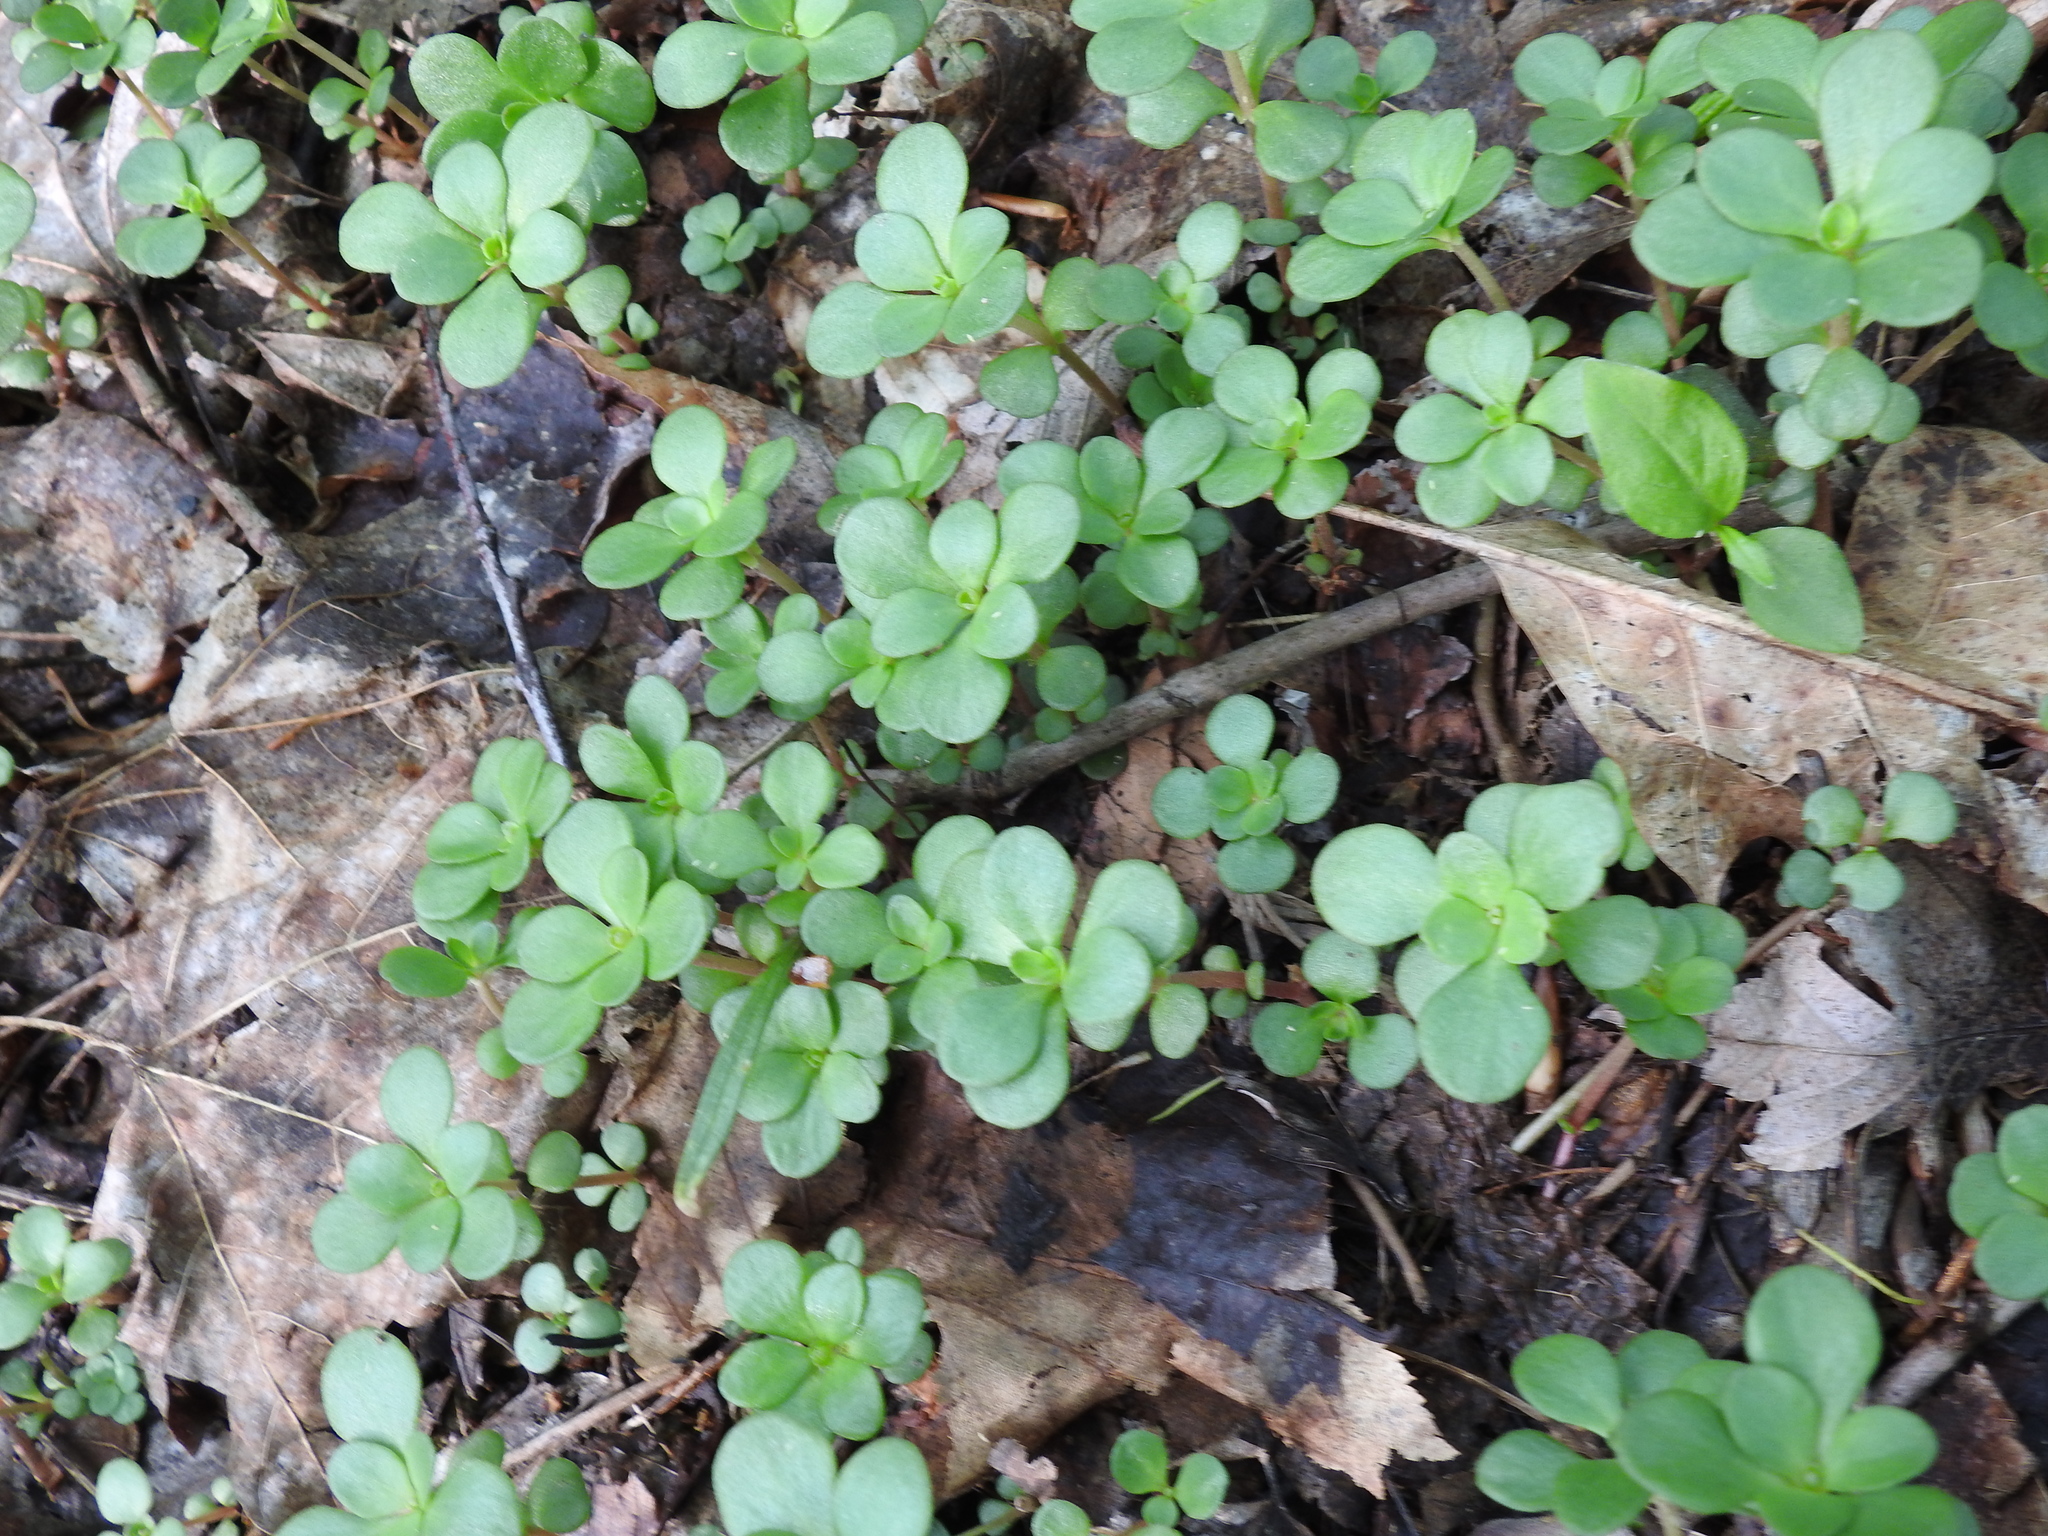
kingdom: Plantae
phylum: Tracheophyta
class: Magnoliopsida
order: Saxifragales
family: Crassulaceae
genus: Sedum
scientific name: Sedum ternatum
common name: Wild stonecrop
